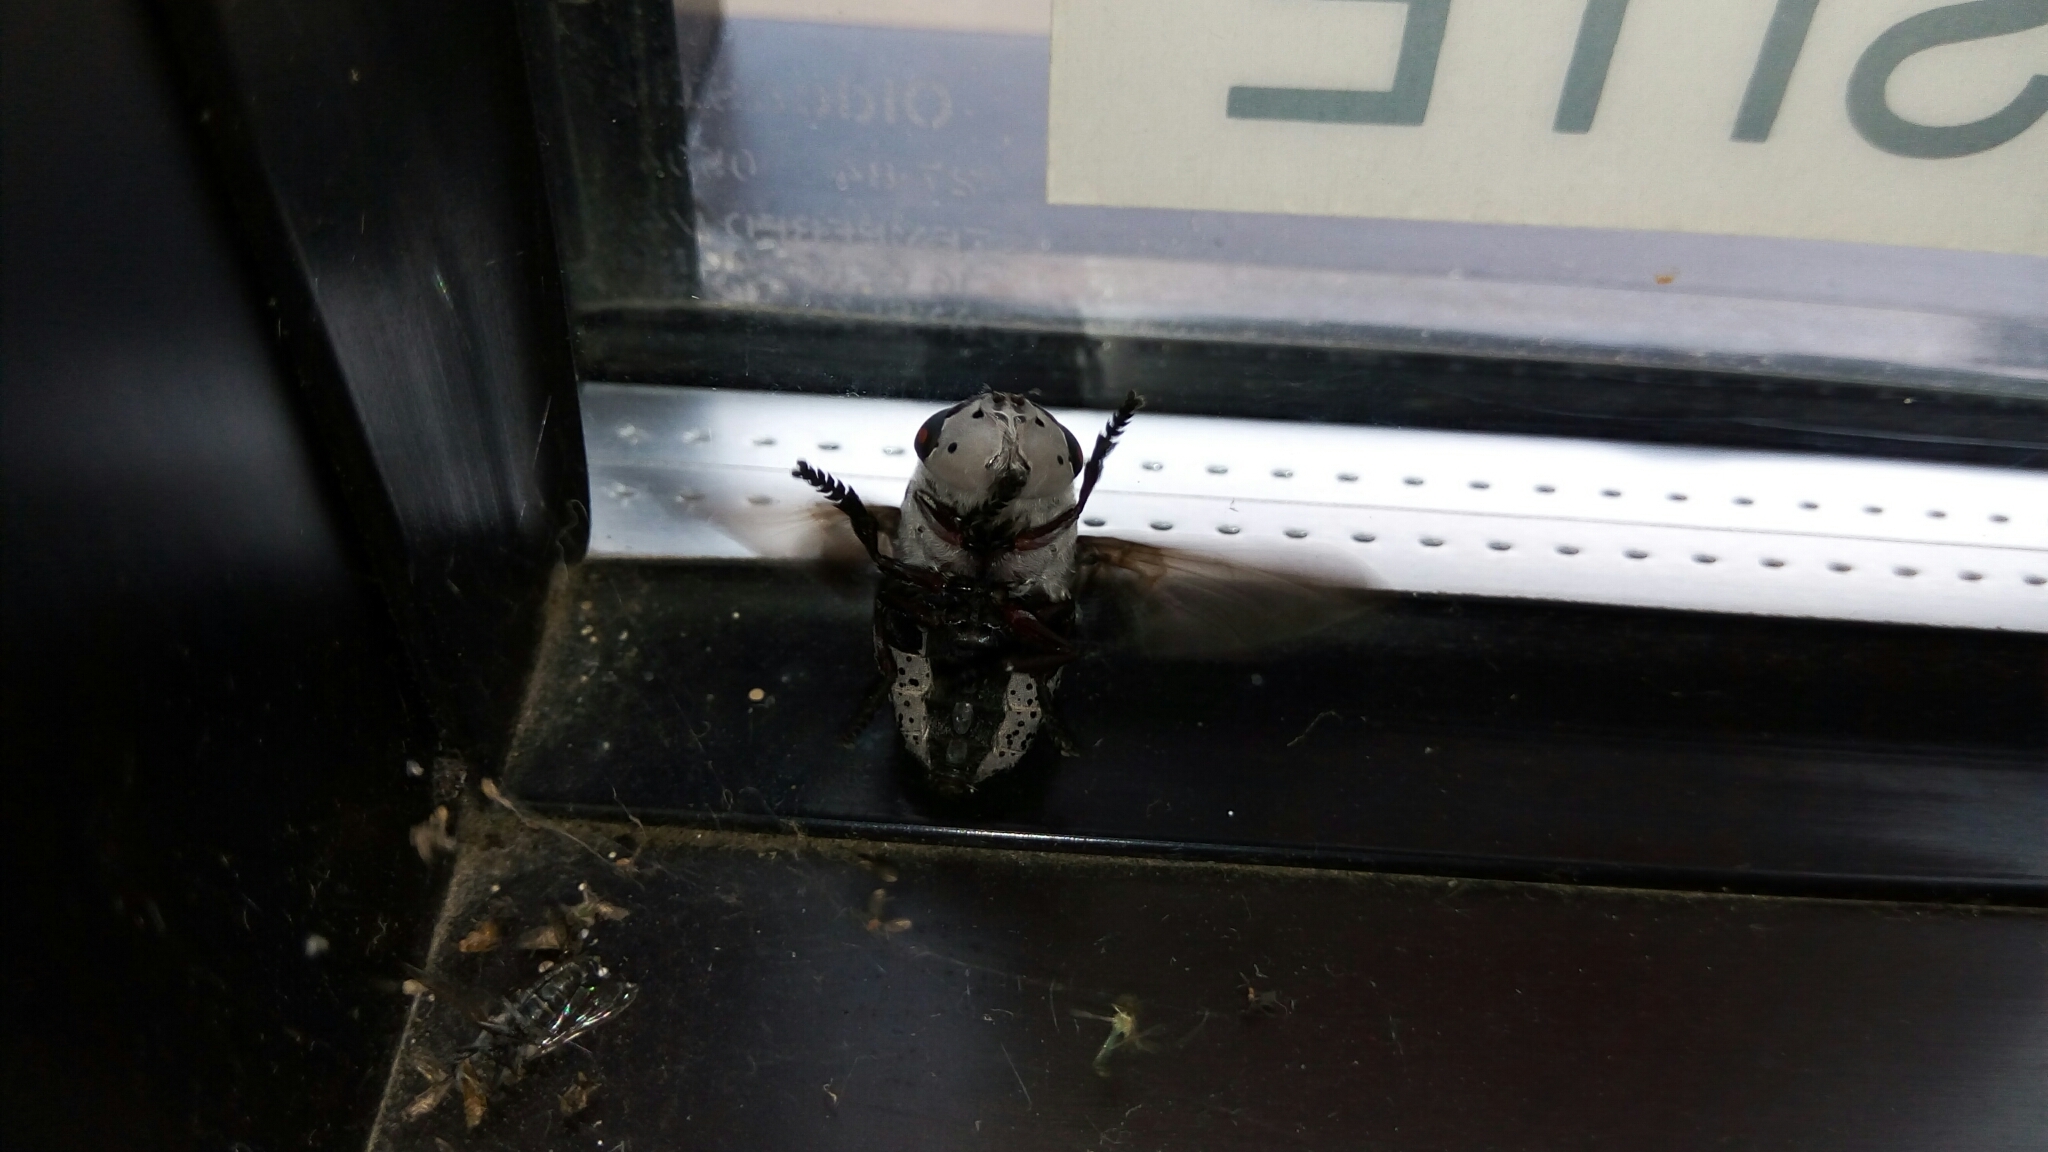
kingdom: Animalia
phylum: Arthropoda
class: Insecta
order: Diptera
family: Oestridae
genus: Cuterebra
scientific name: Cuterebra buccata
